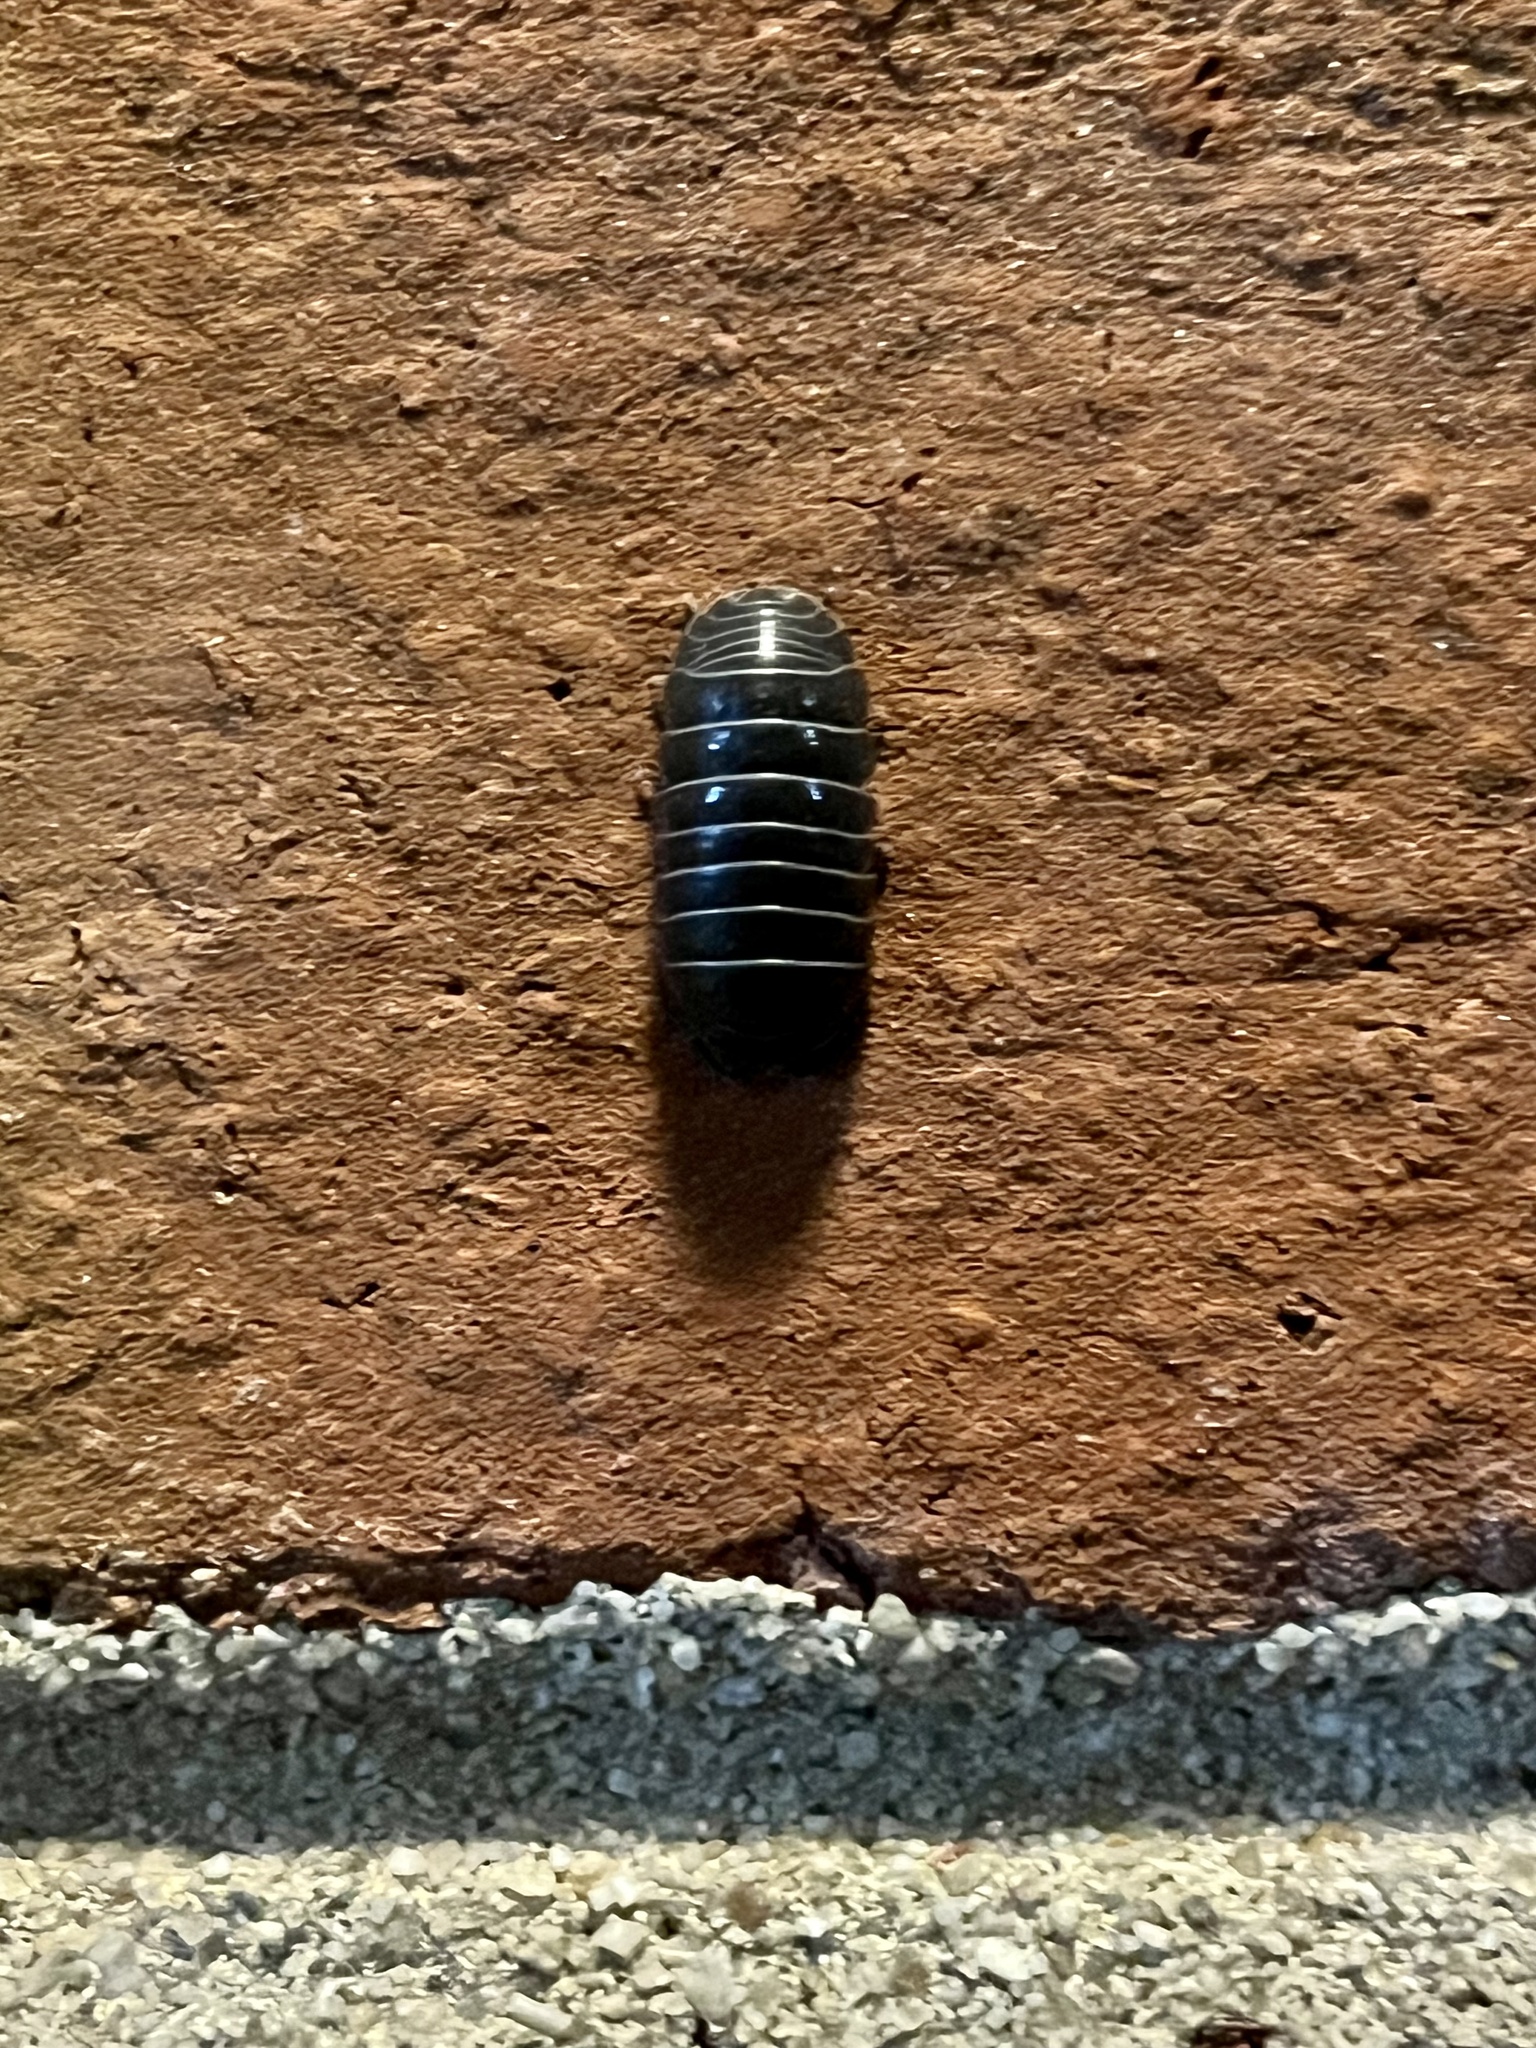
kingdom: Animalia
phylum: Arthropoda
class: Malacostraca
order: Isopoda
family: Armadillidiidae
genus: Armadillidium
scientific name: Armadillidium vulgare
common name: Common pill woodlouse
